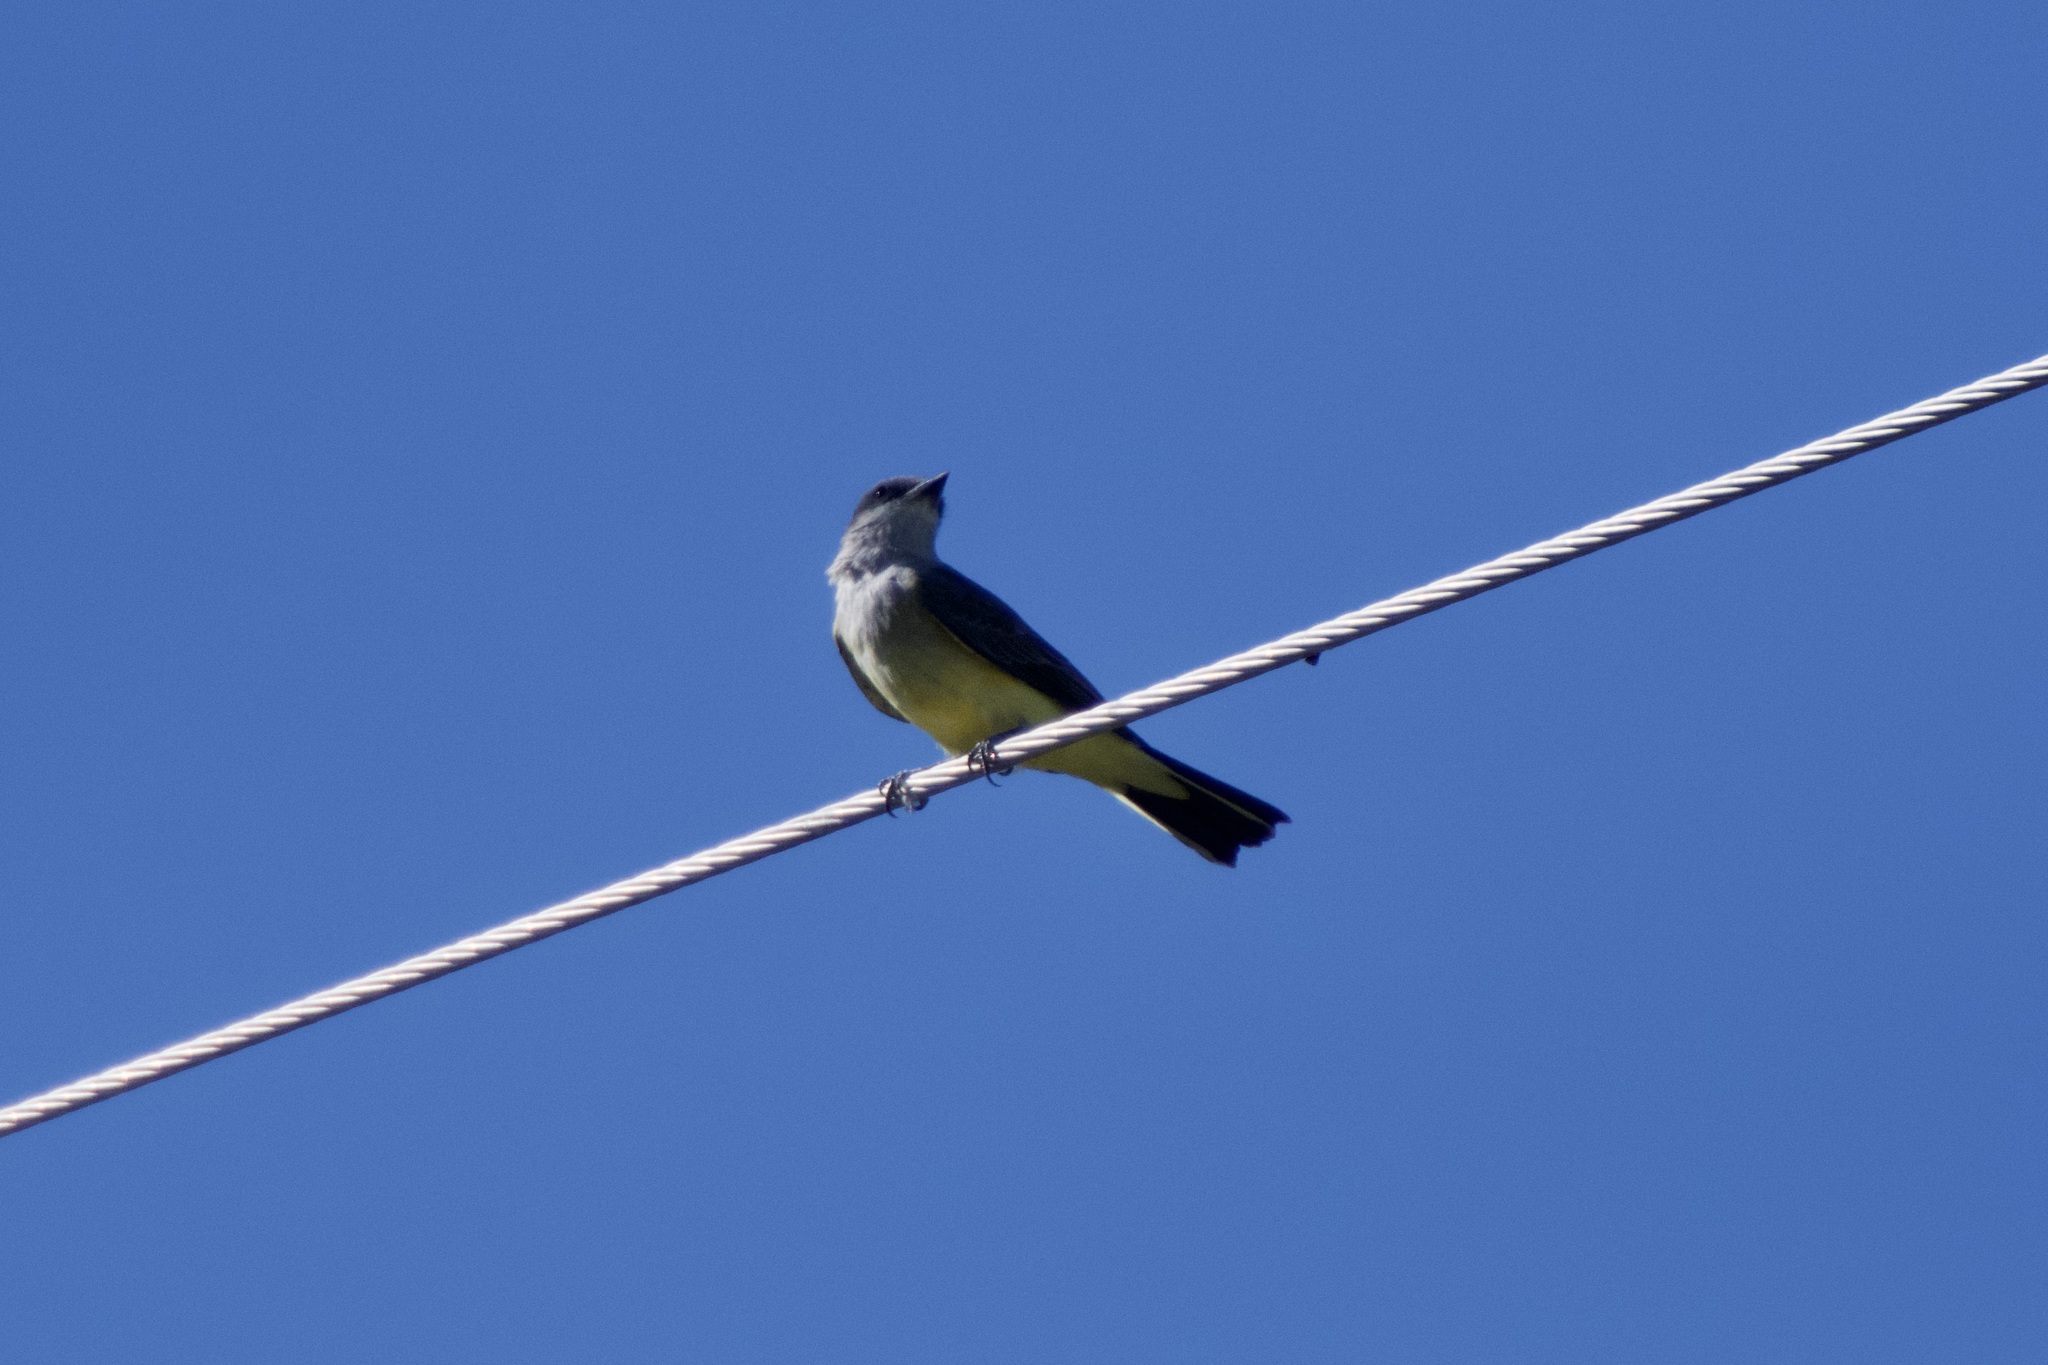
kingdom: Animalia
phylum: Chordata
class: Aves
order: Passeriformes
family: Tyrannidae
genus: Tyrannus
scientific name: Tyrannus verticalis
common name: Western kingbird
